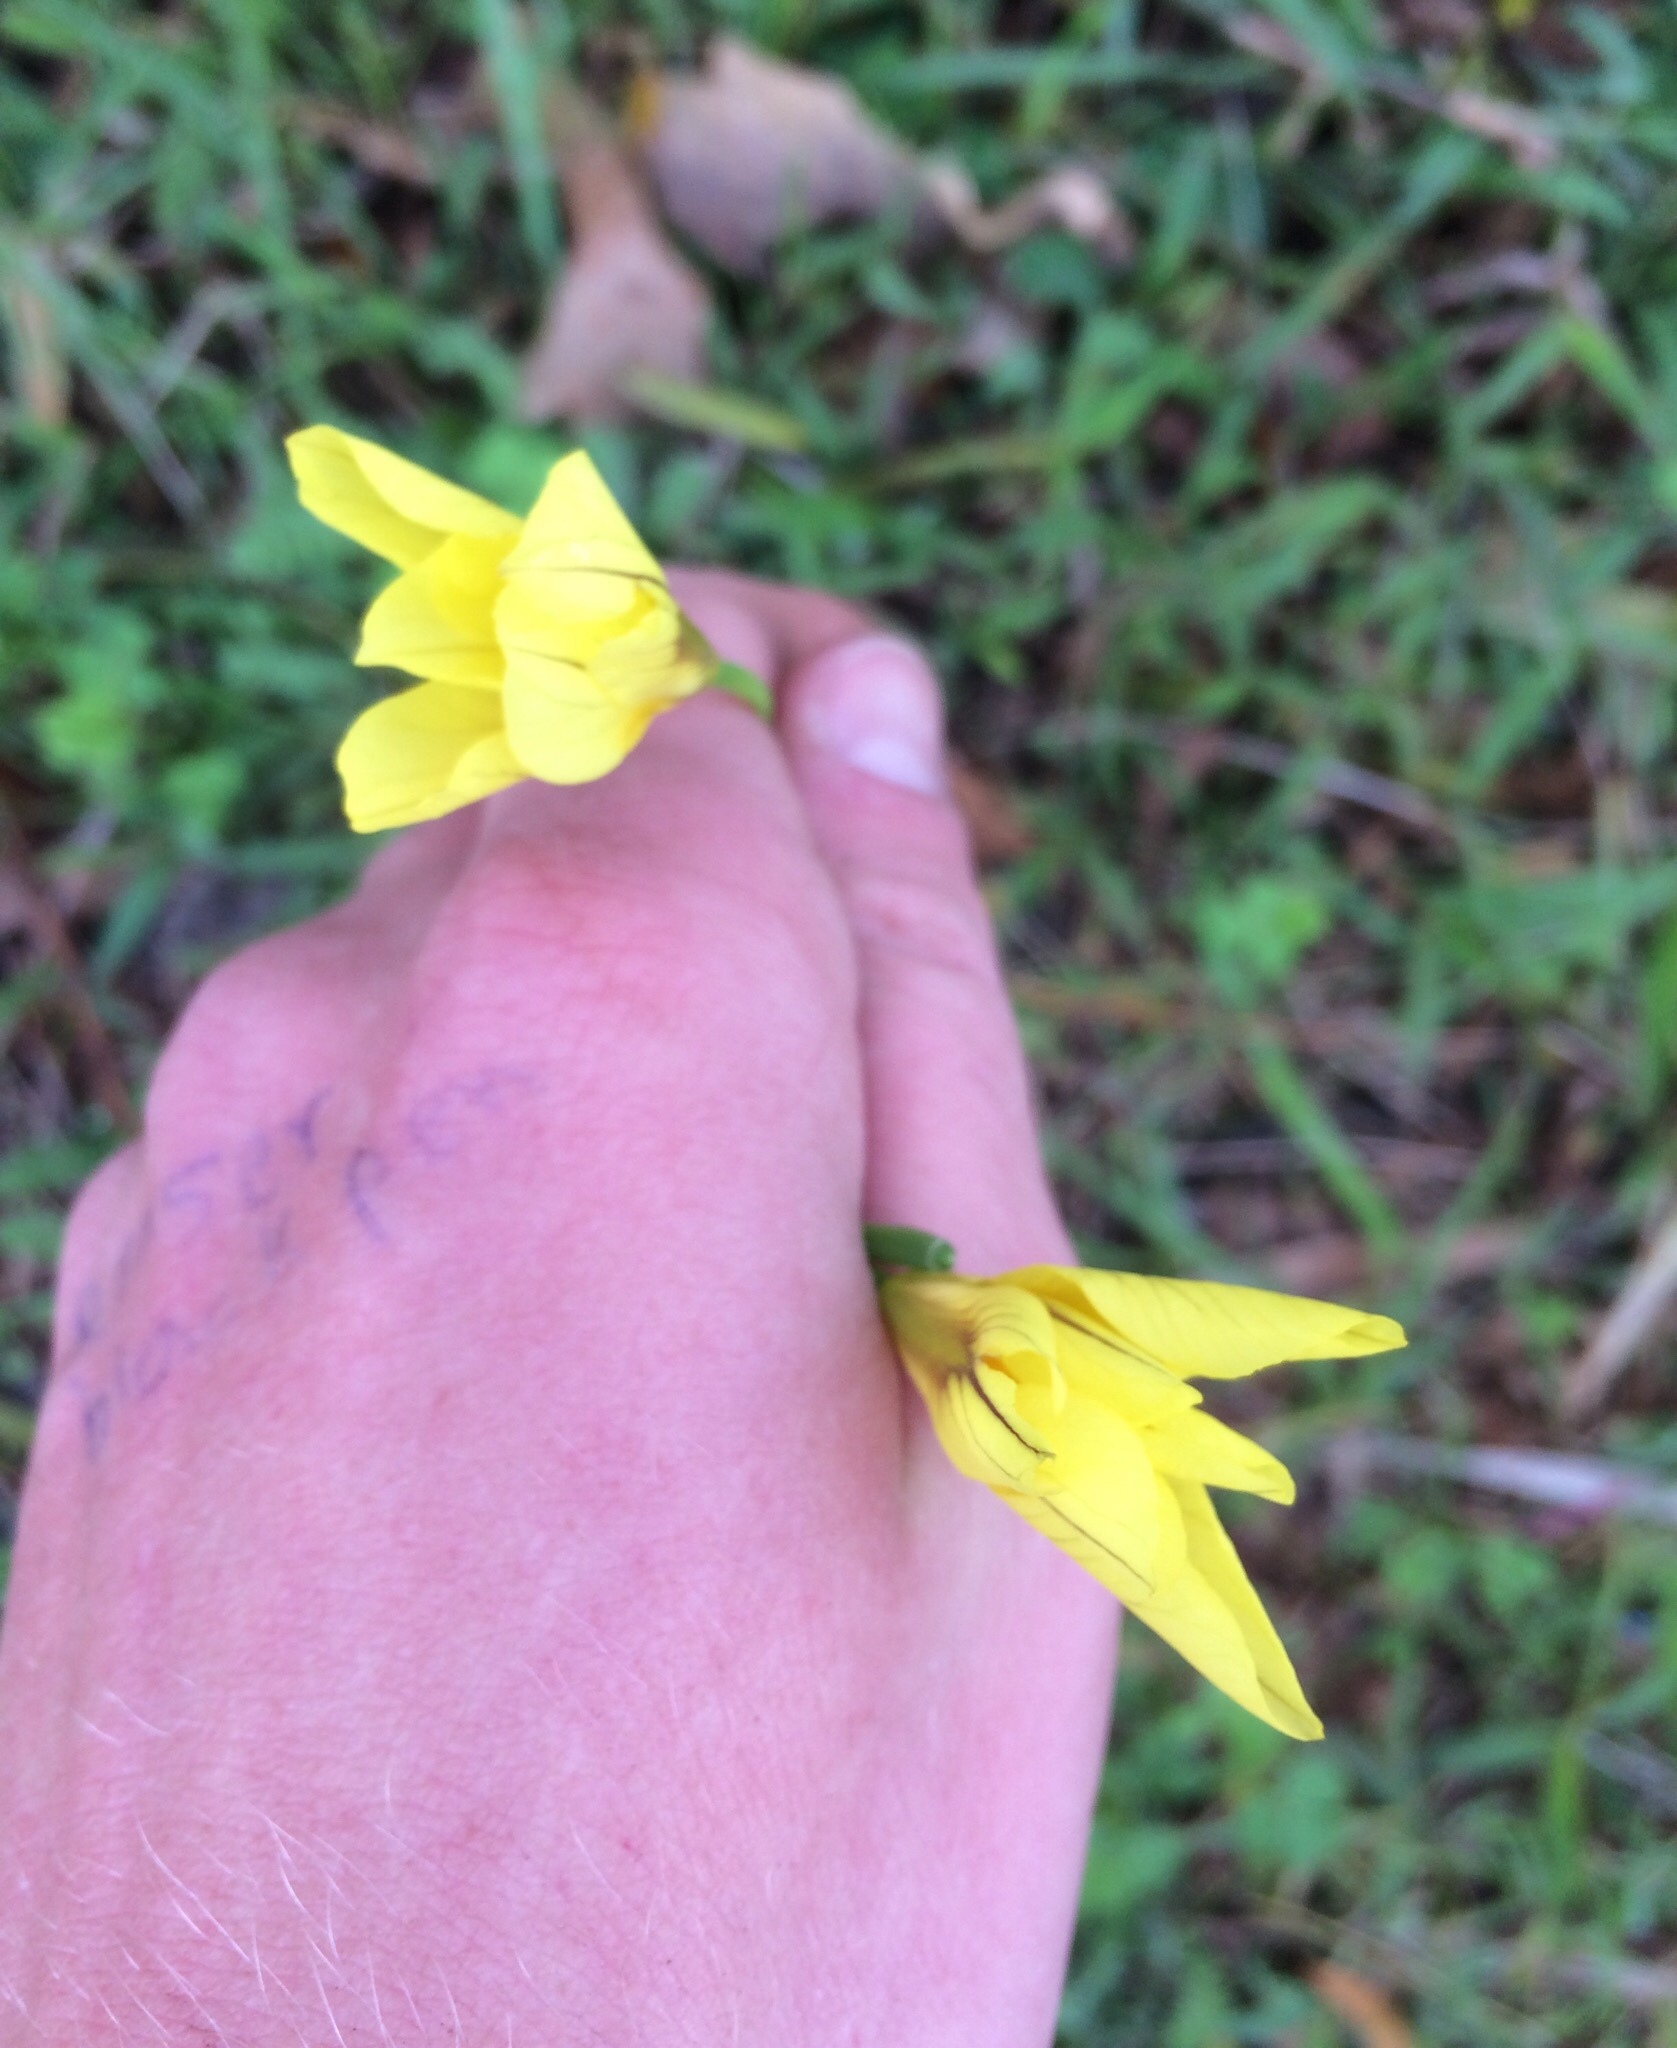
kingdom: Plantae
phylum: Tracheophyta
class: Liliopsida
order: Asparagales
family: Iridaceae
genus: Moraea
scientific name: Moraea collina
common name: Cape-tulip
